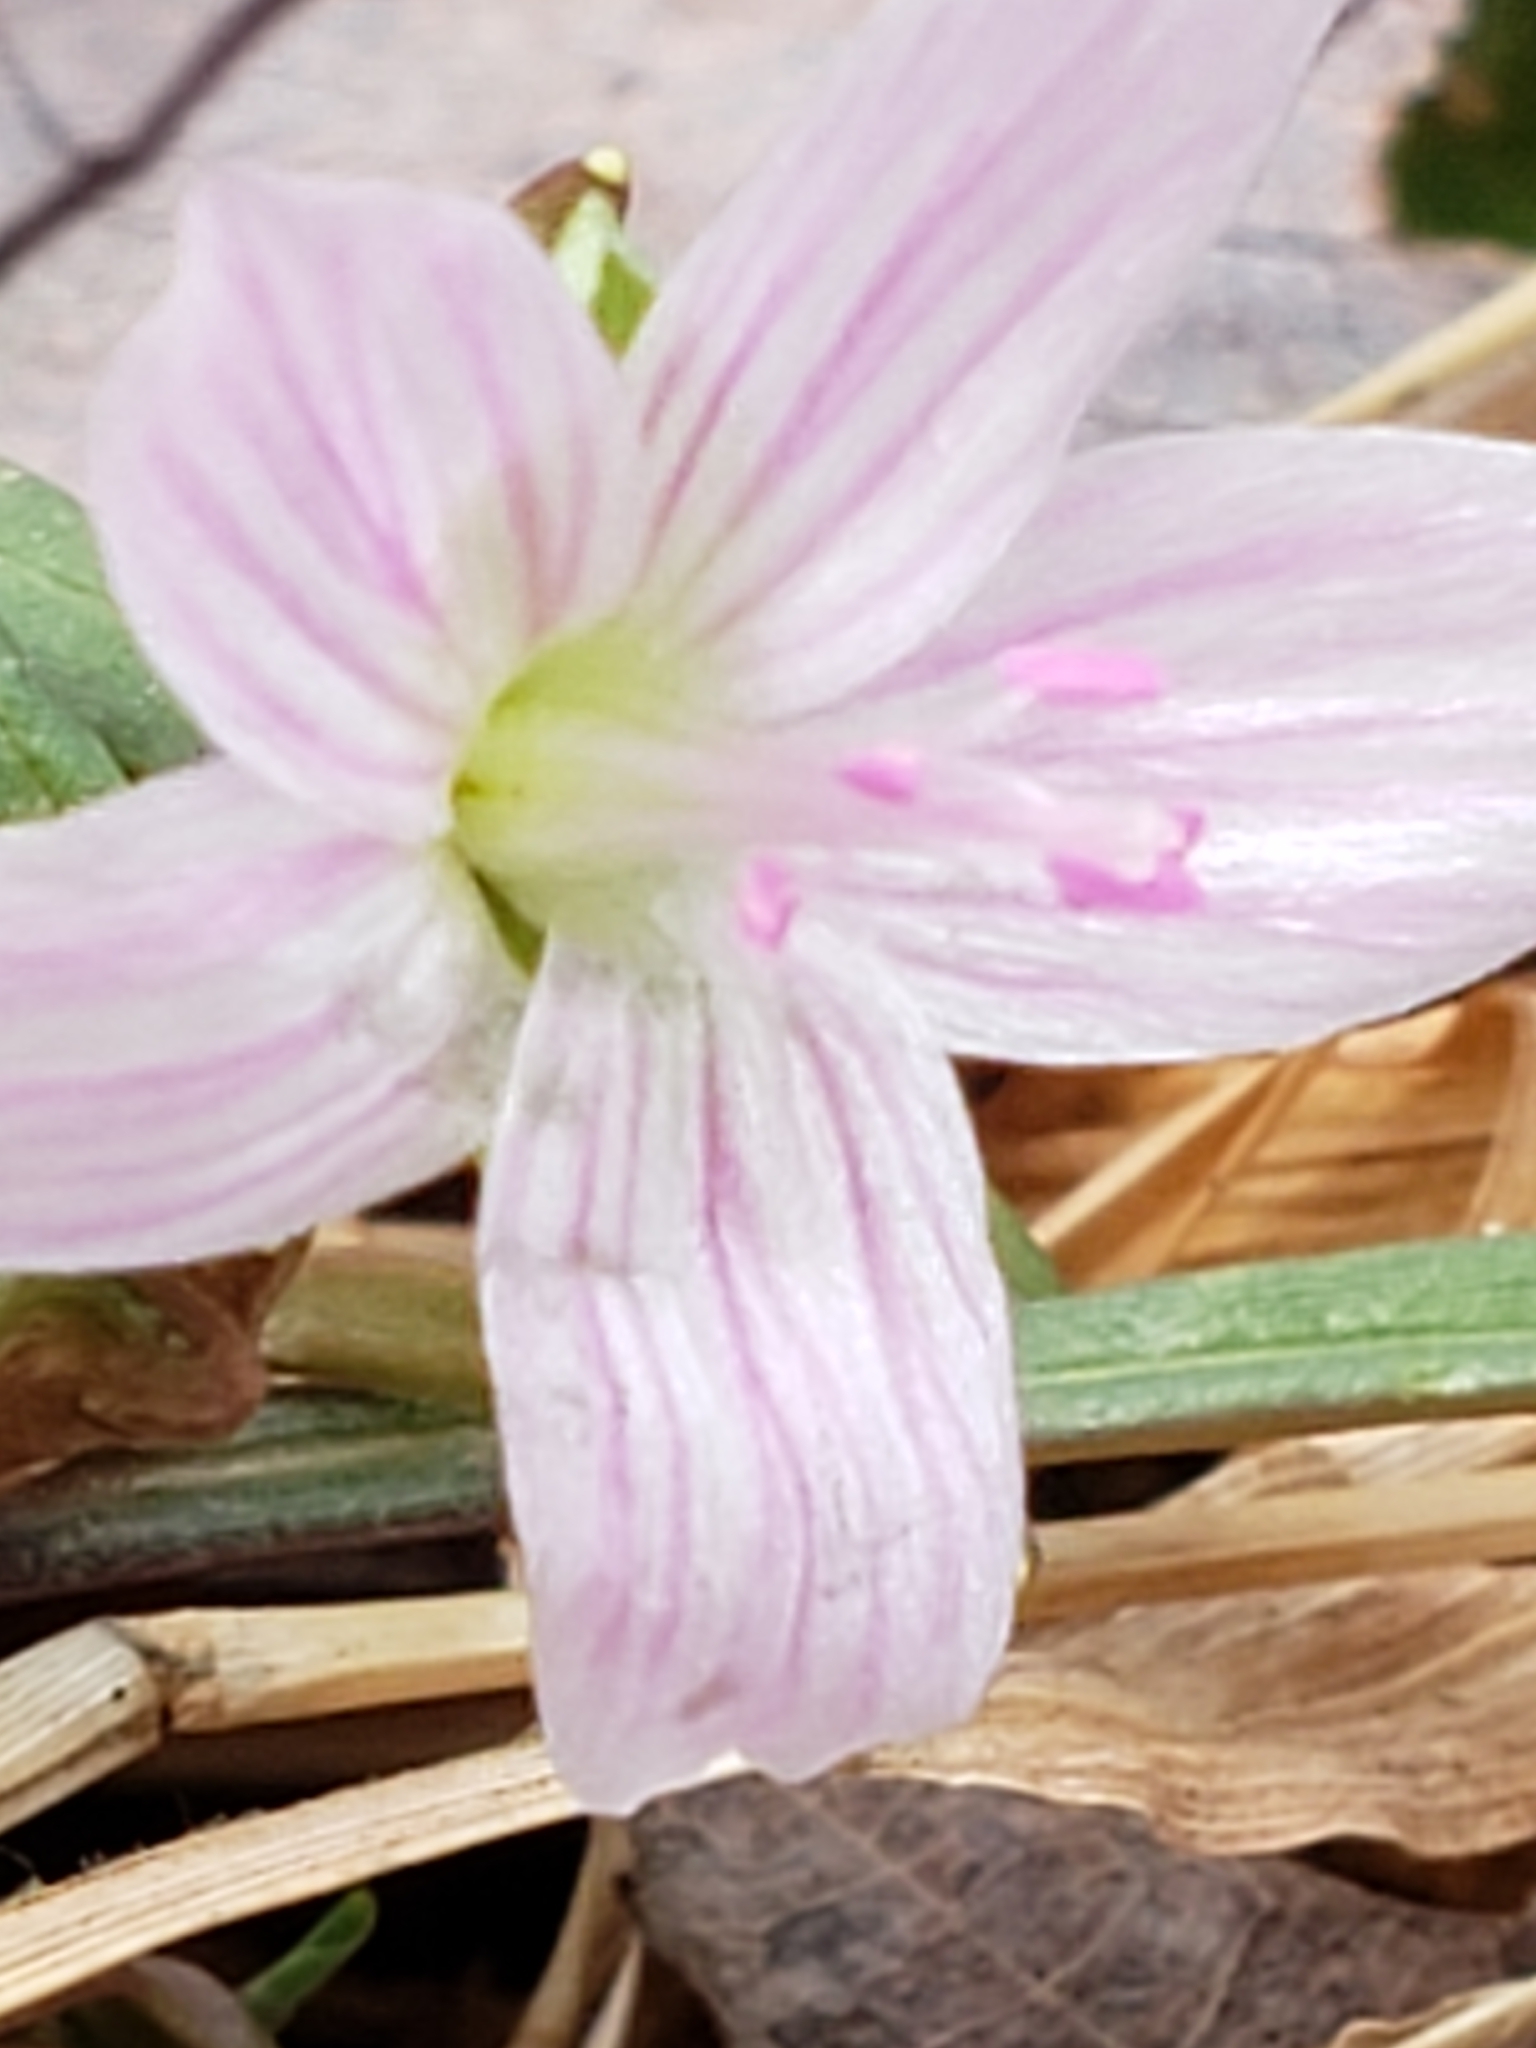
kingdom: Plantae
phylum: Tracheophyta
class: Magnoliopsida
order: Caryophyllales
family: Montiaceae
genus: Claytonia
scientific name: Claytonia virginica
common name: Virginia springbeauty
